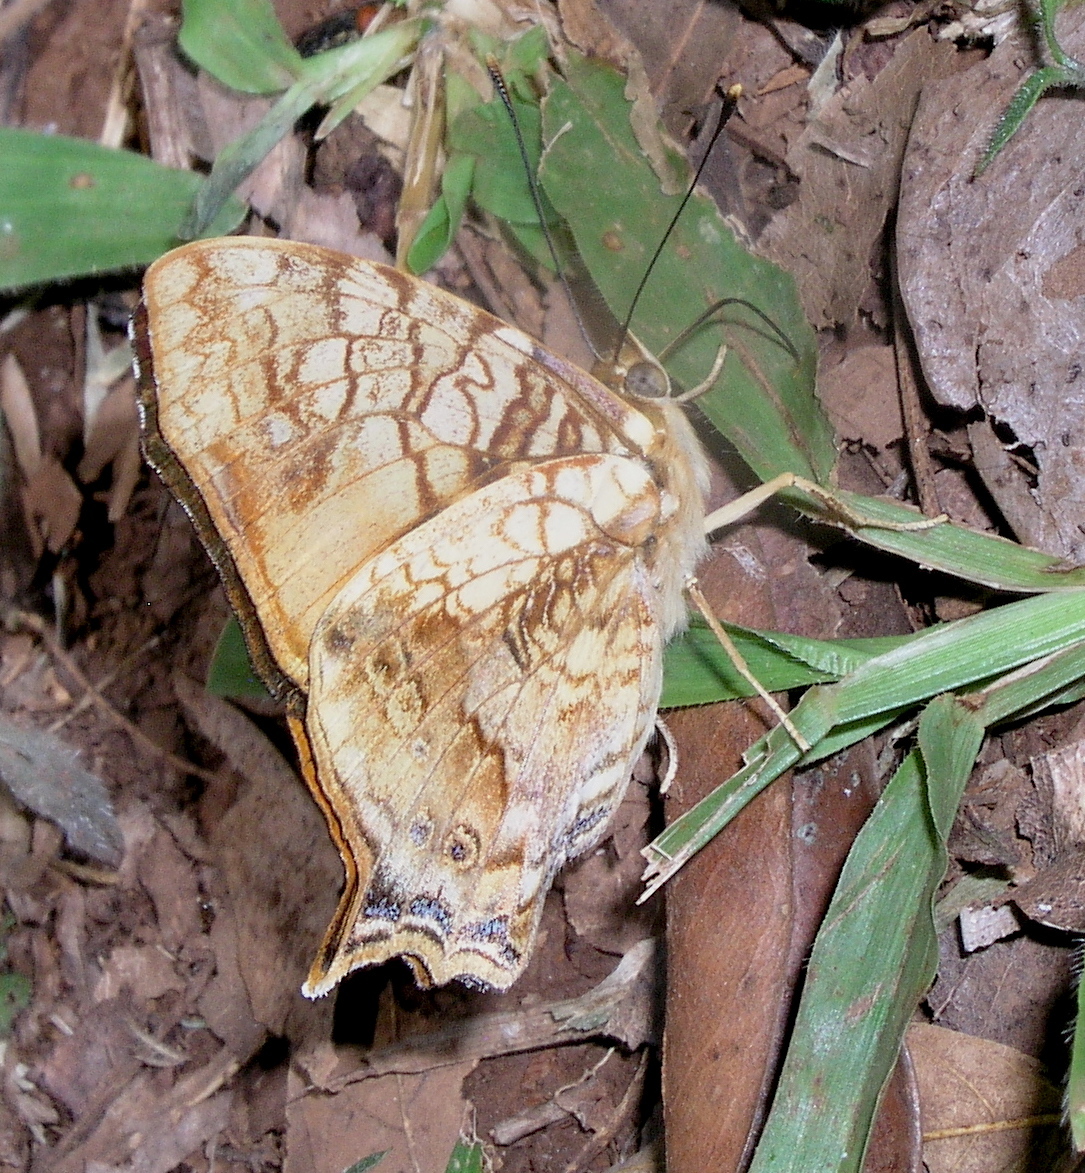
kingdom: Animalia
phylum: Arthropoda
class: Insecta
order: Lepidoptera
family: Nymphalidae
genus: Hypanartia
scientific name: Hypanartia lethe
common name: Orange mapwing
